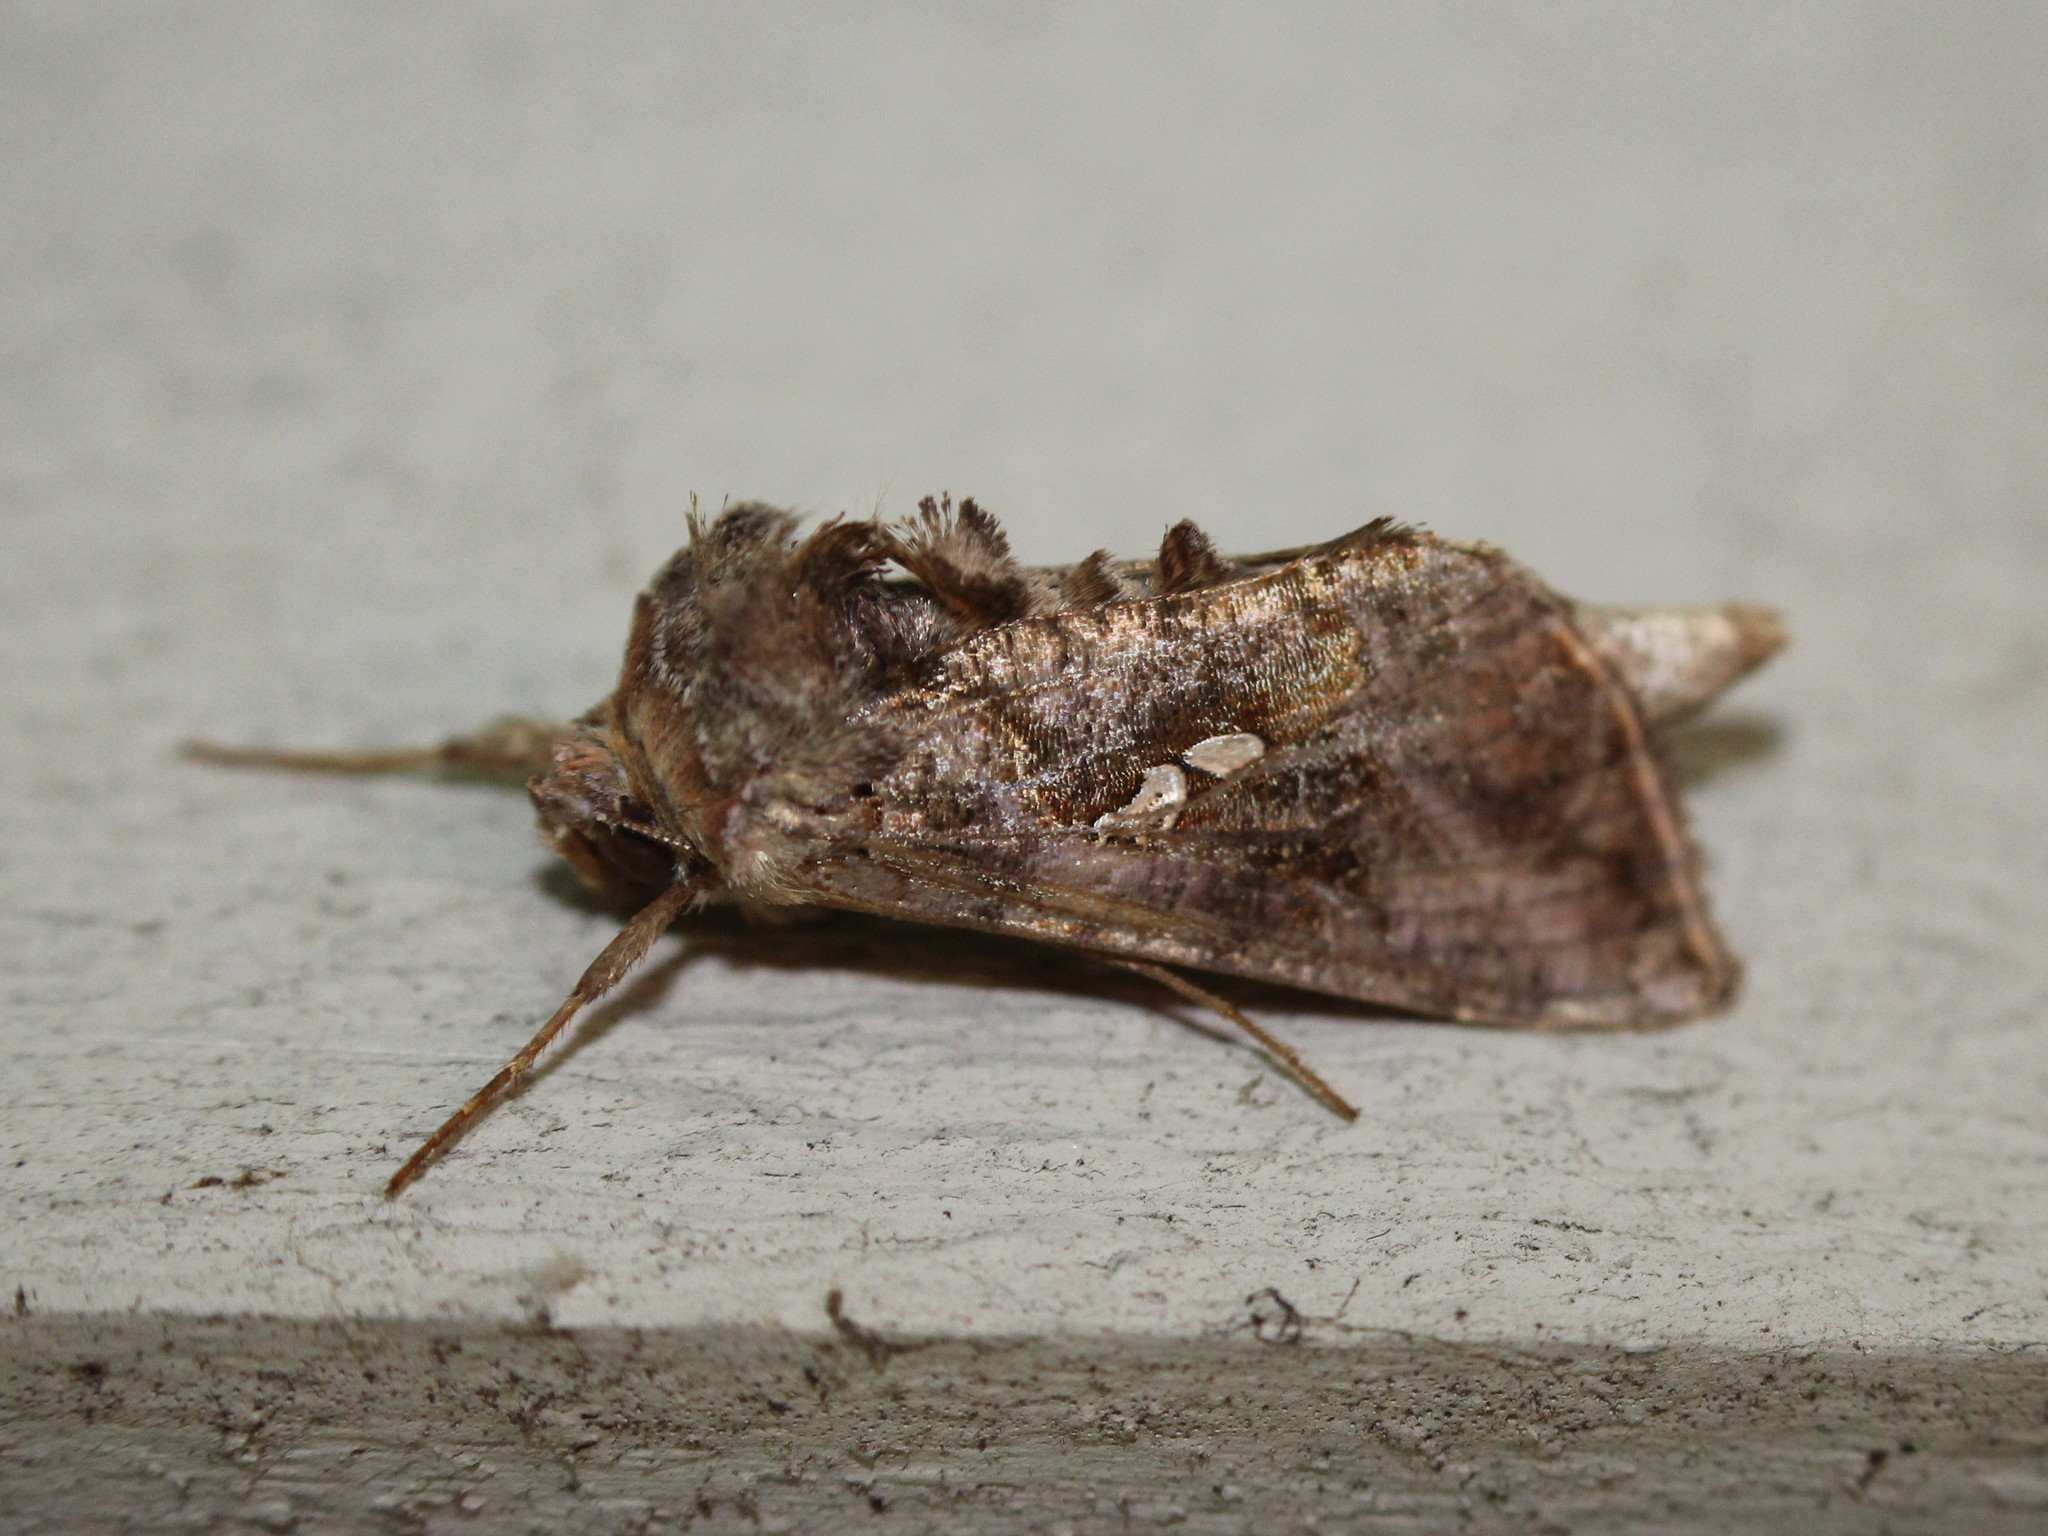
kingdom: Animalia
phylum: Arthropoda
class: Insecta
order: Lepidoptera
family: Noctuidae
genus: Autographa
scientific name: Autographa precationis
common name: Common looper moth
